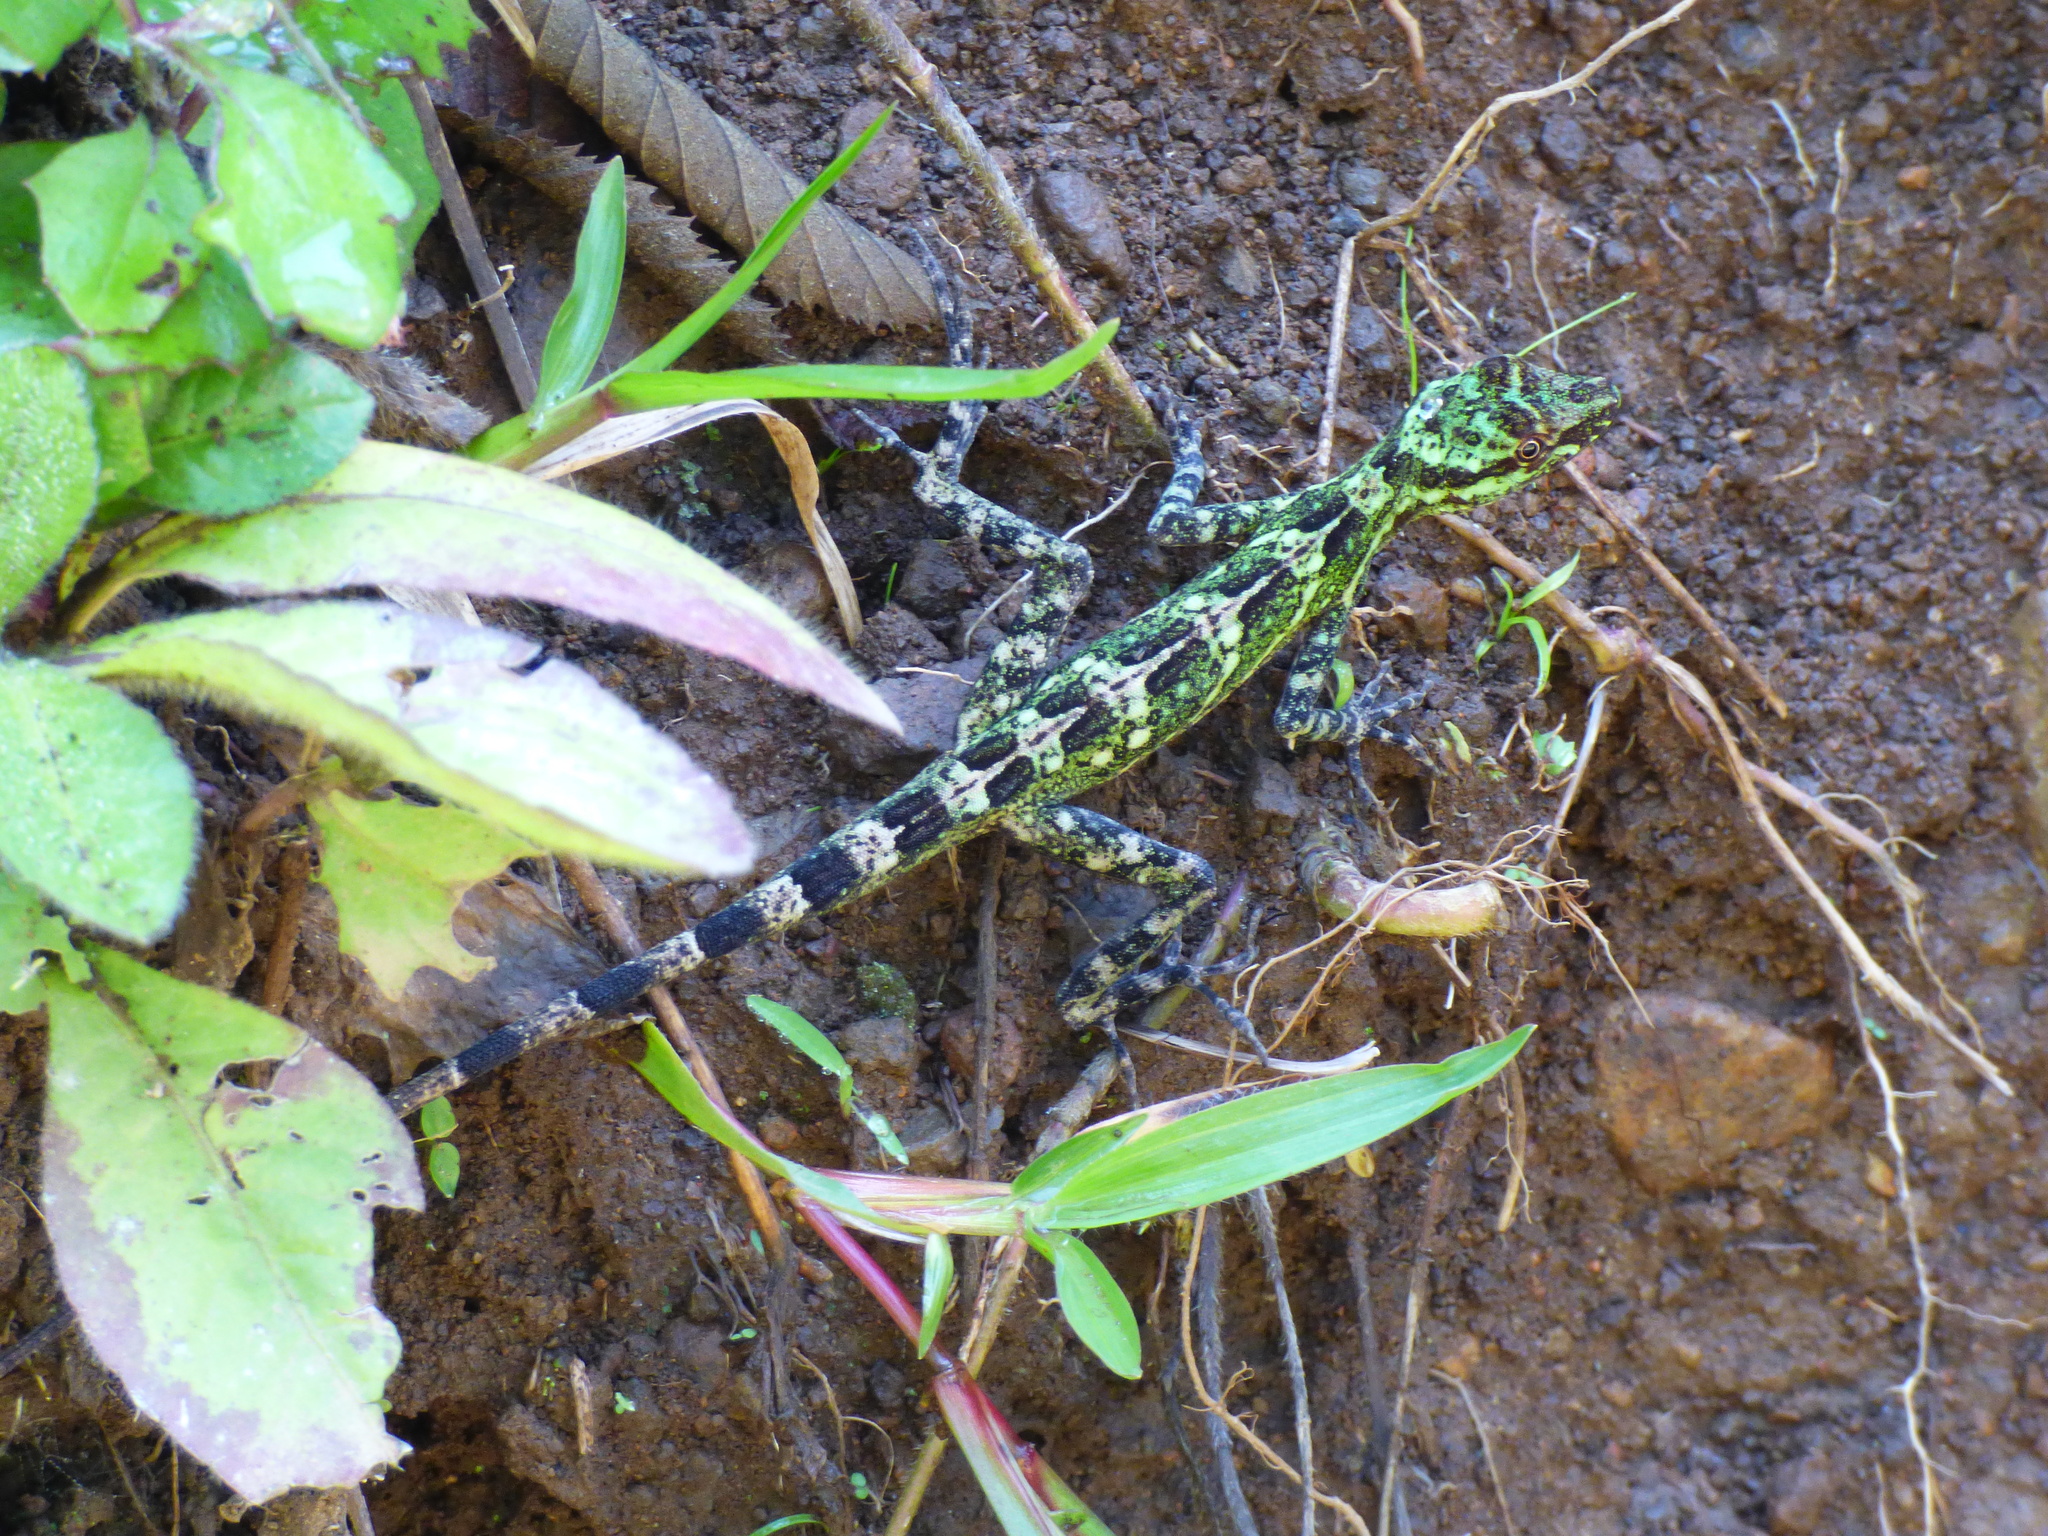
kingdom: Animalia
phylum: Chordata
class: Squamata
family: Dactyloidae
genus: Anolis
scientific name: Anolis eulaemus
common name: Good anole
